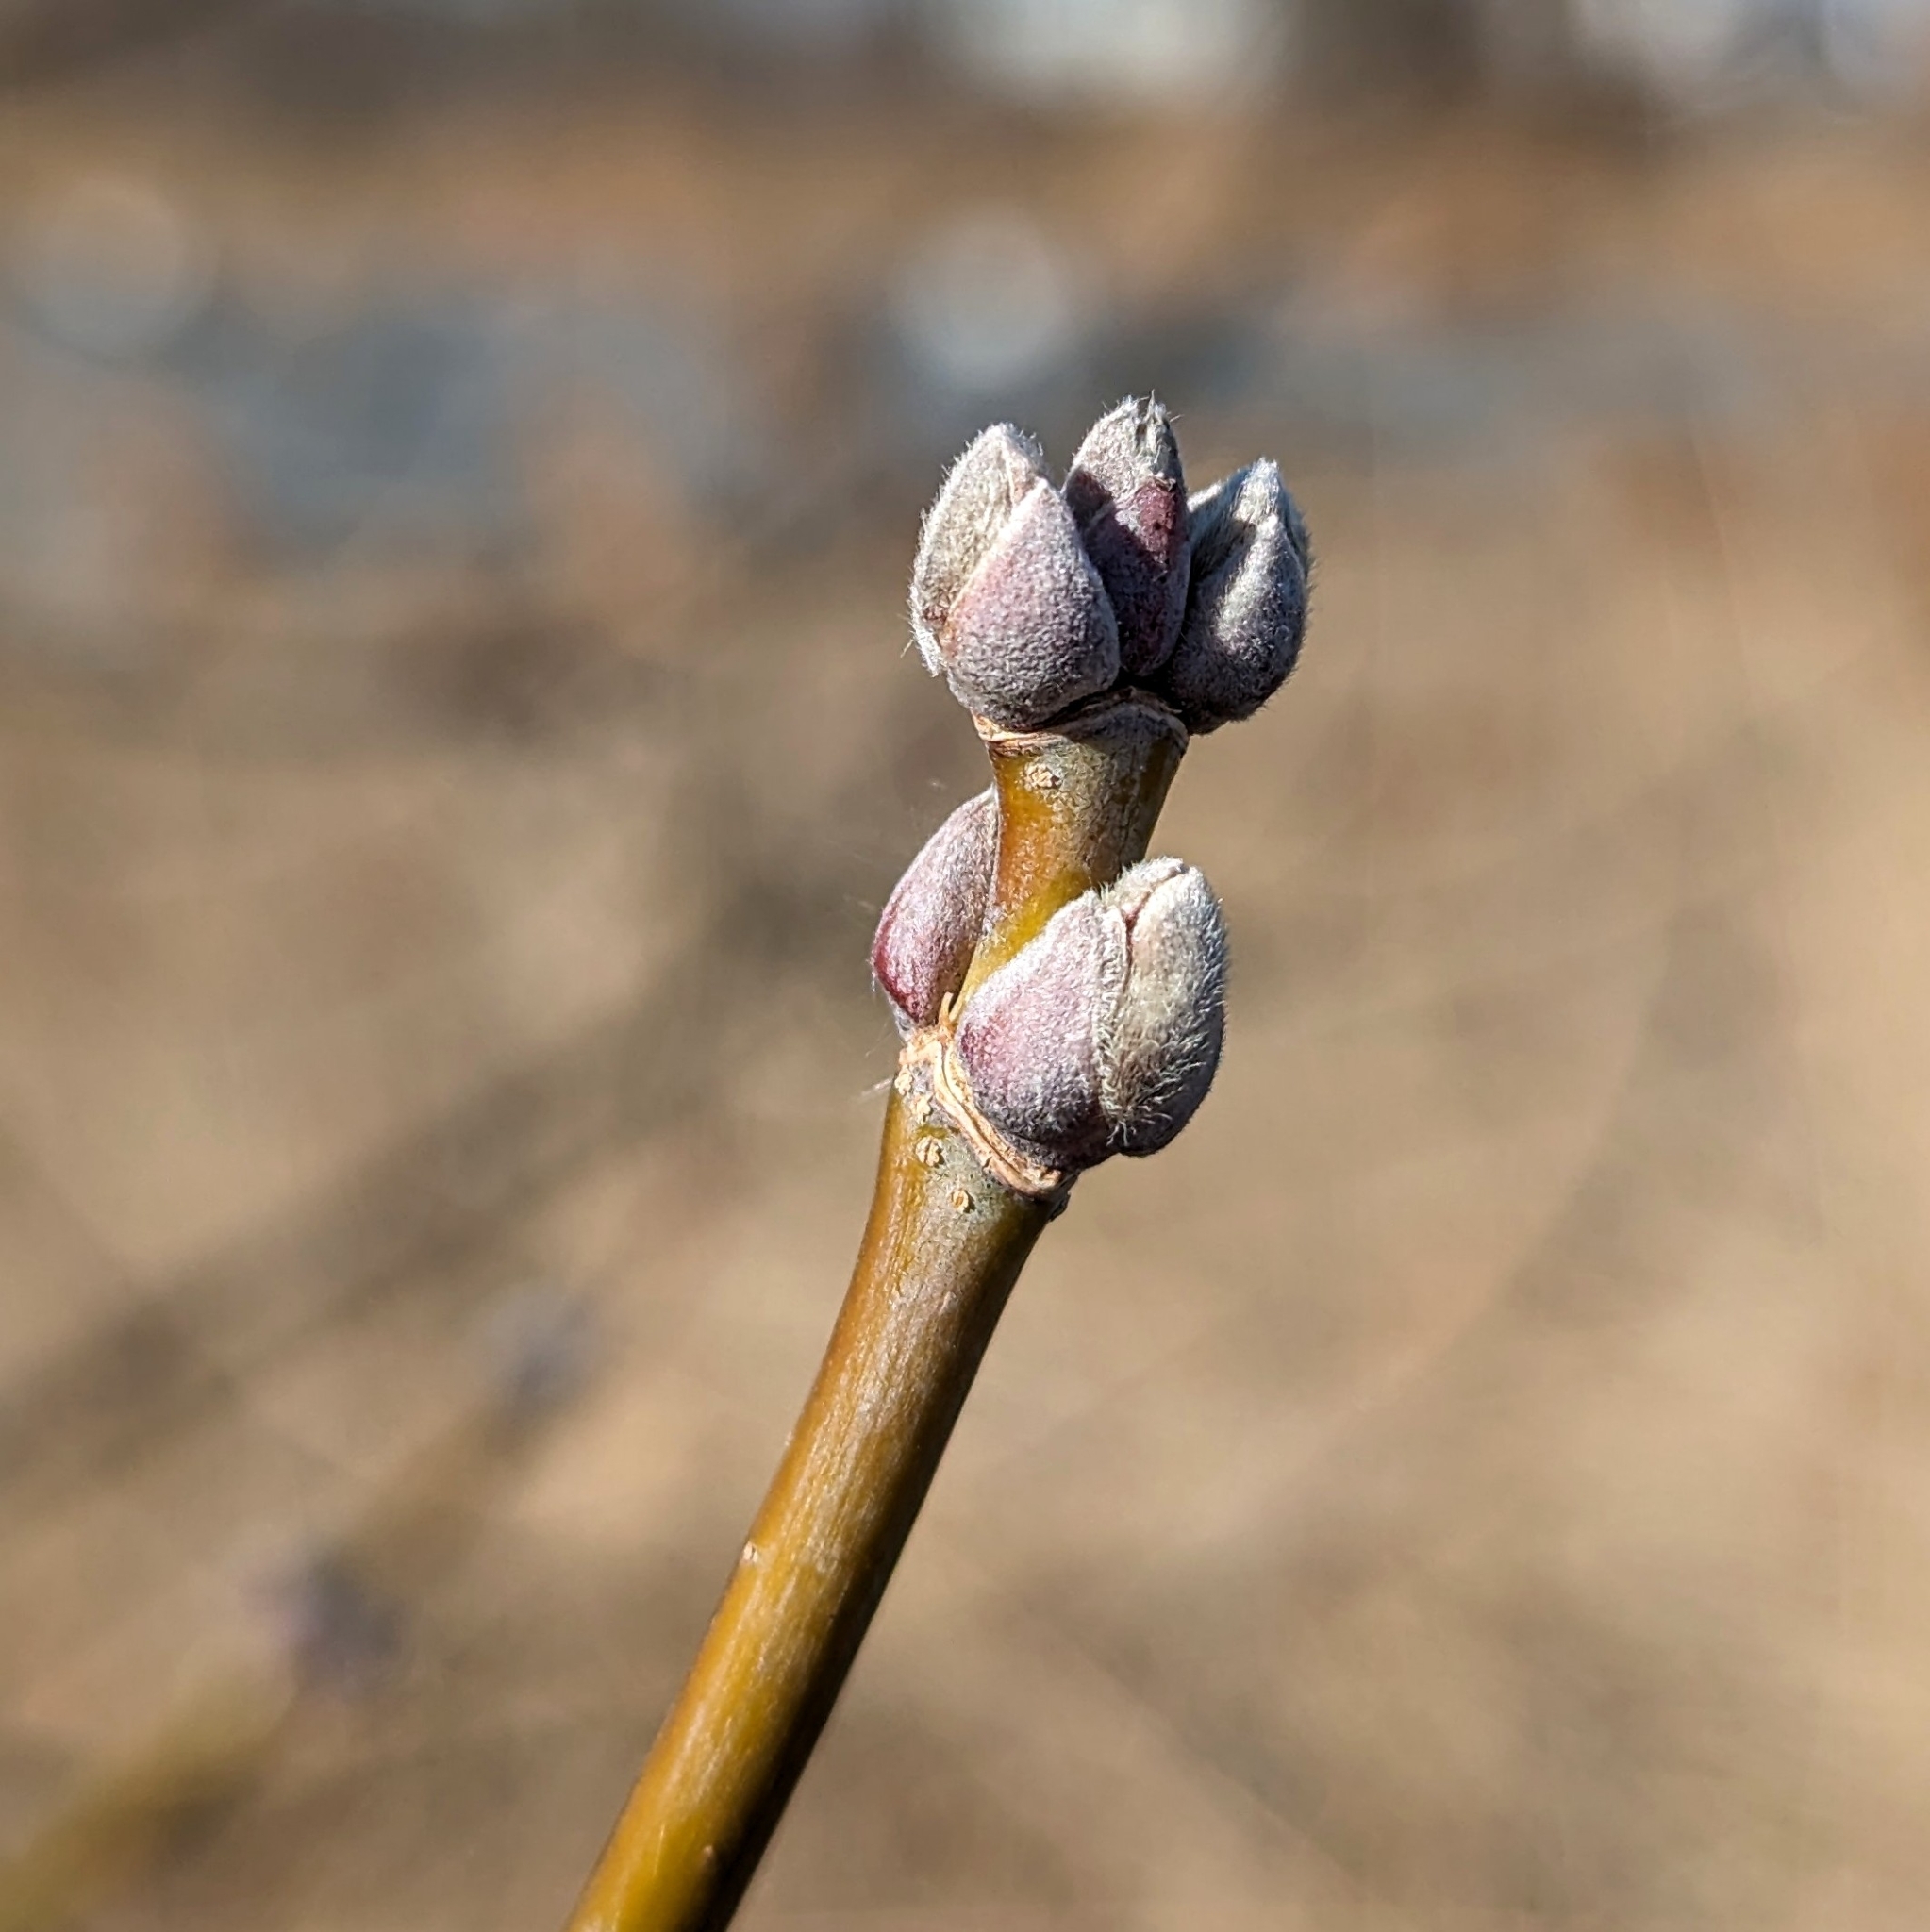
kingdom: Plantae
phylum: Tracheophyta
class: Magnoliopsida
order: Sapindales
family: Sapindaceae
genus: Acer
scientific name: Acer negundo
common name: Ashleaf maple
